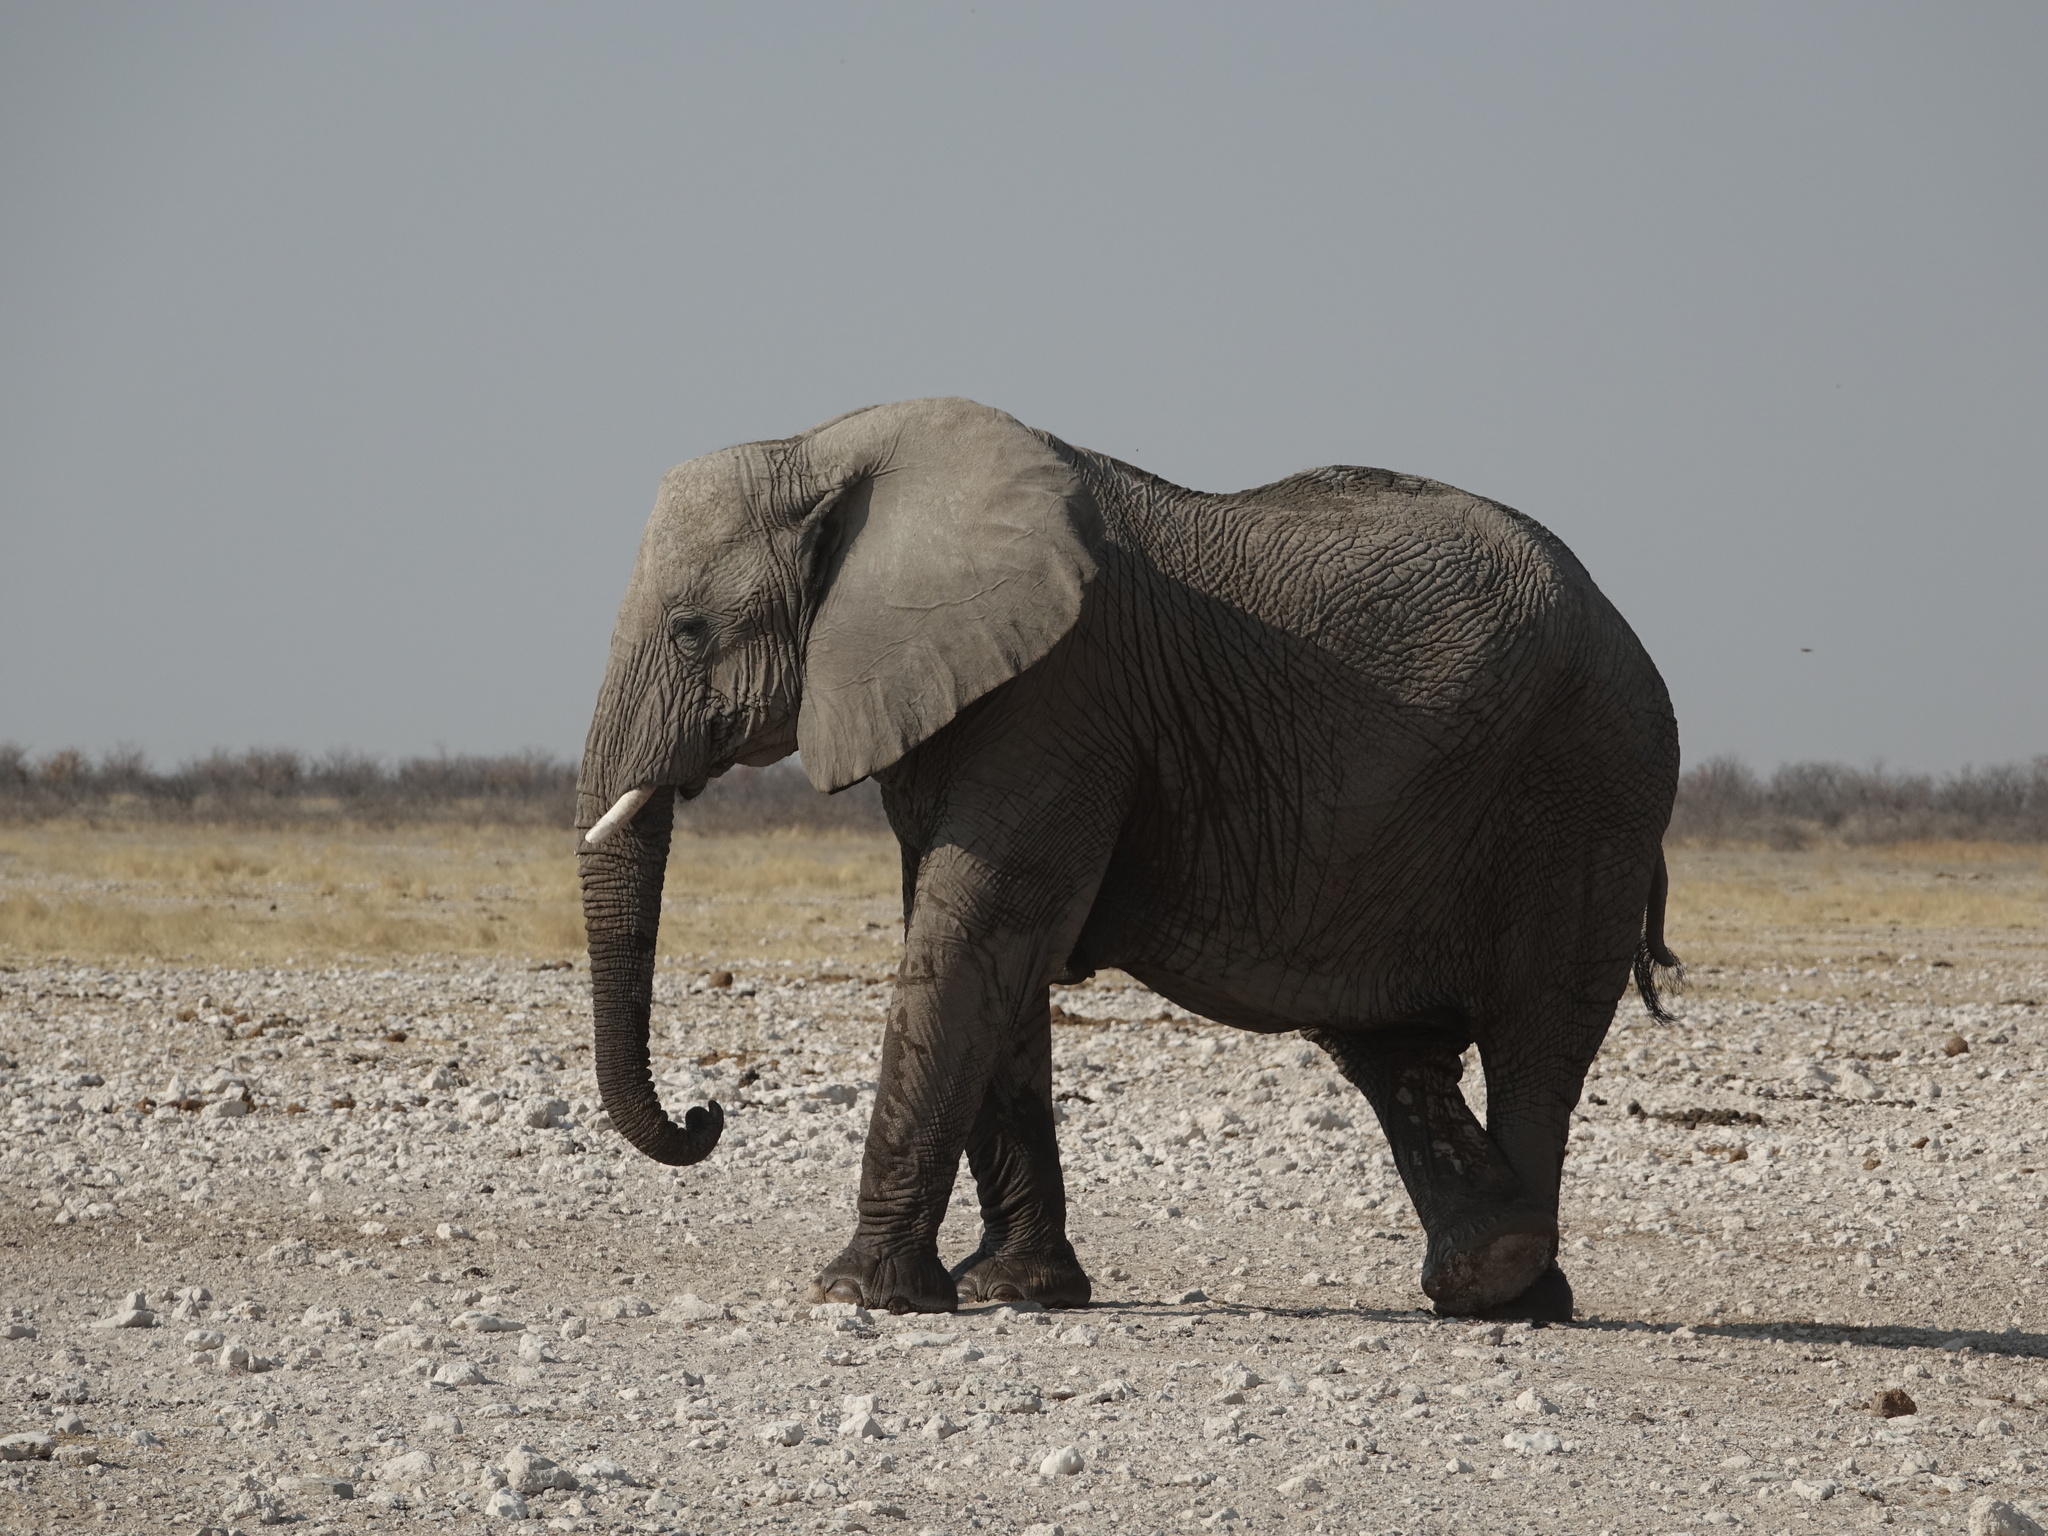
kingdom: Animalia
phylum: Chordata
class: Mammalia
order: Proboscidea
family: Elephantidae
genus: Loxodonta
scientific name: Loxodonta africana
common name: African elephant
